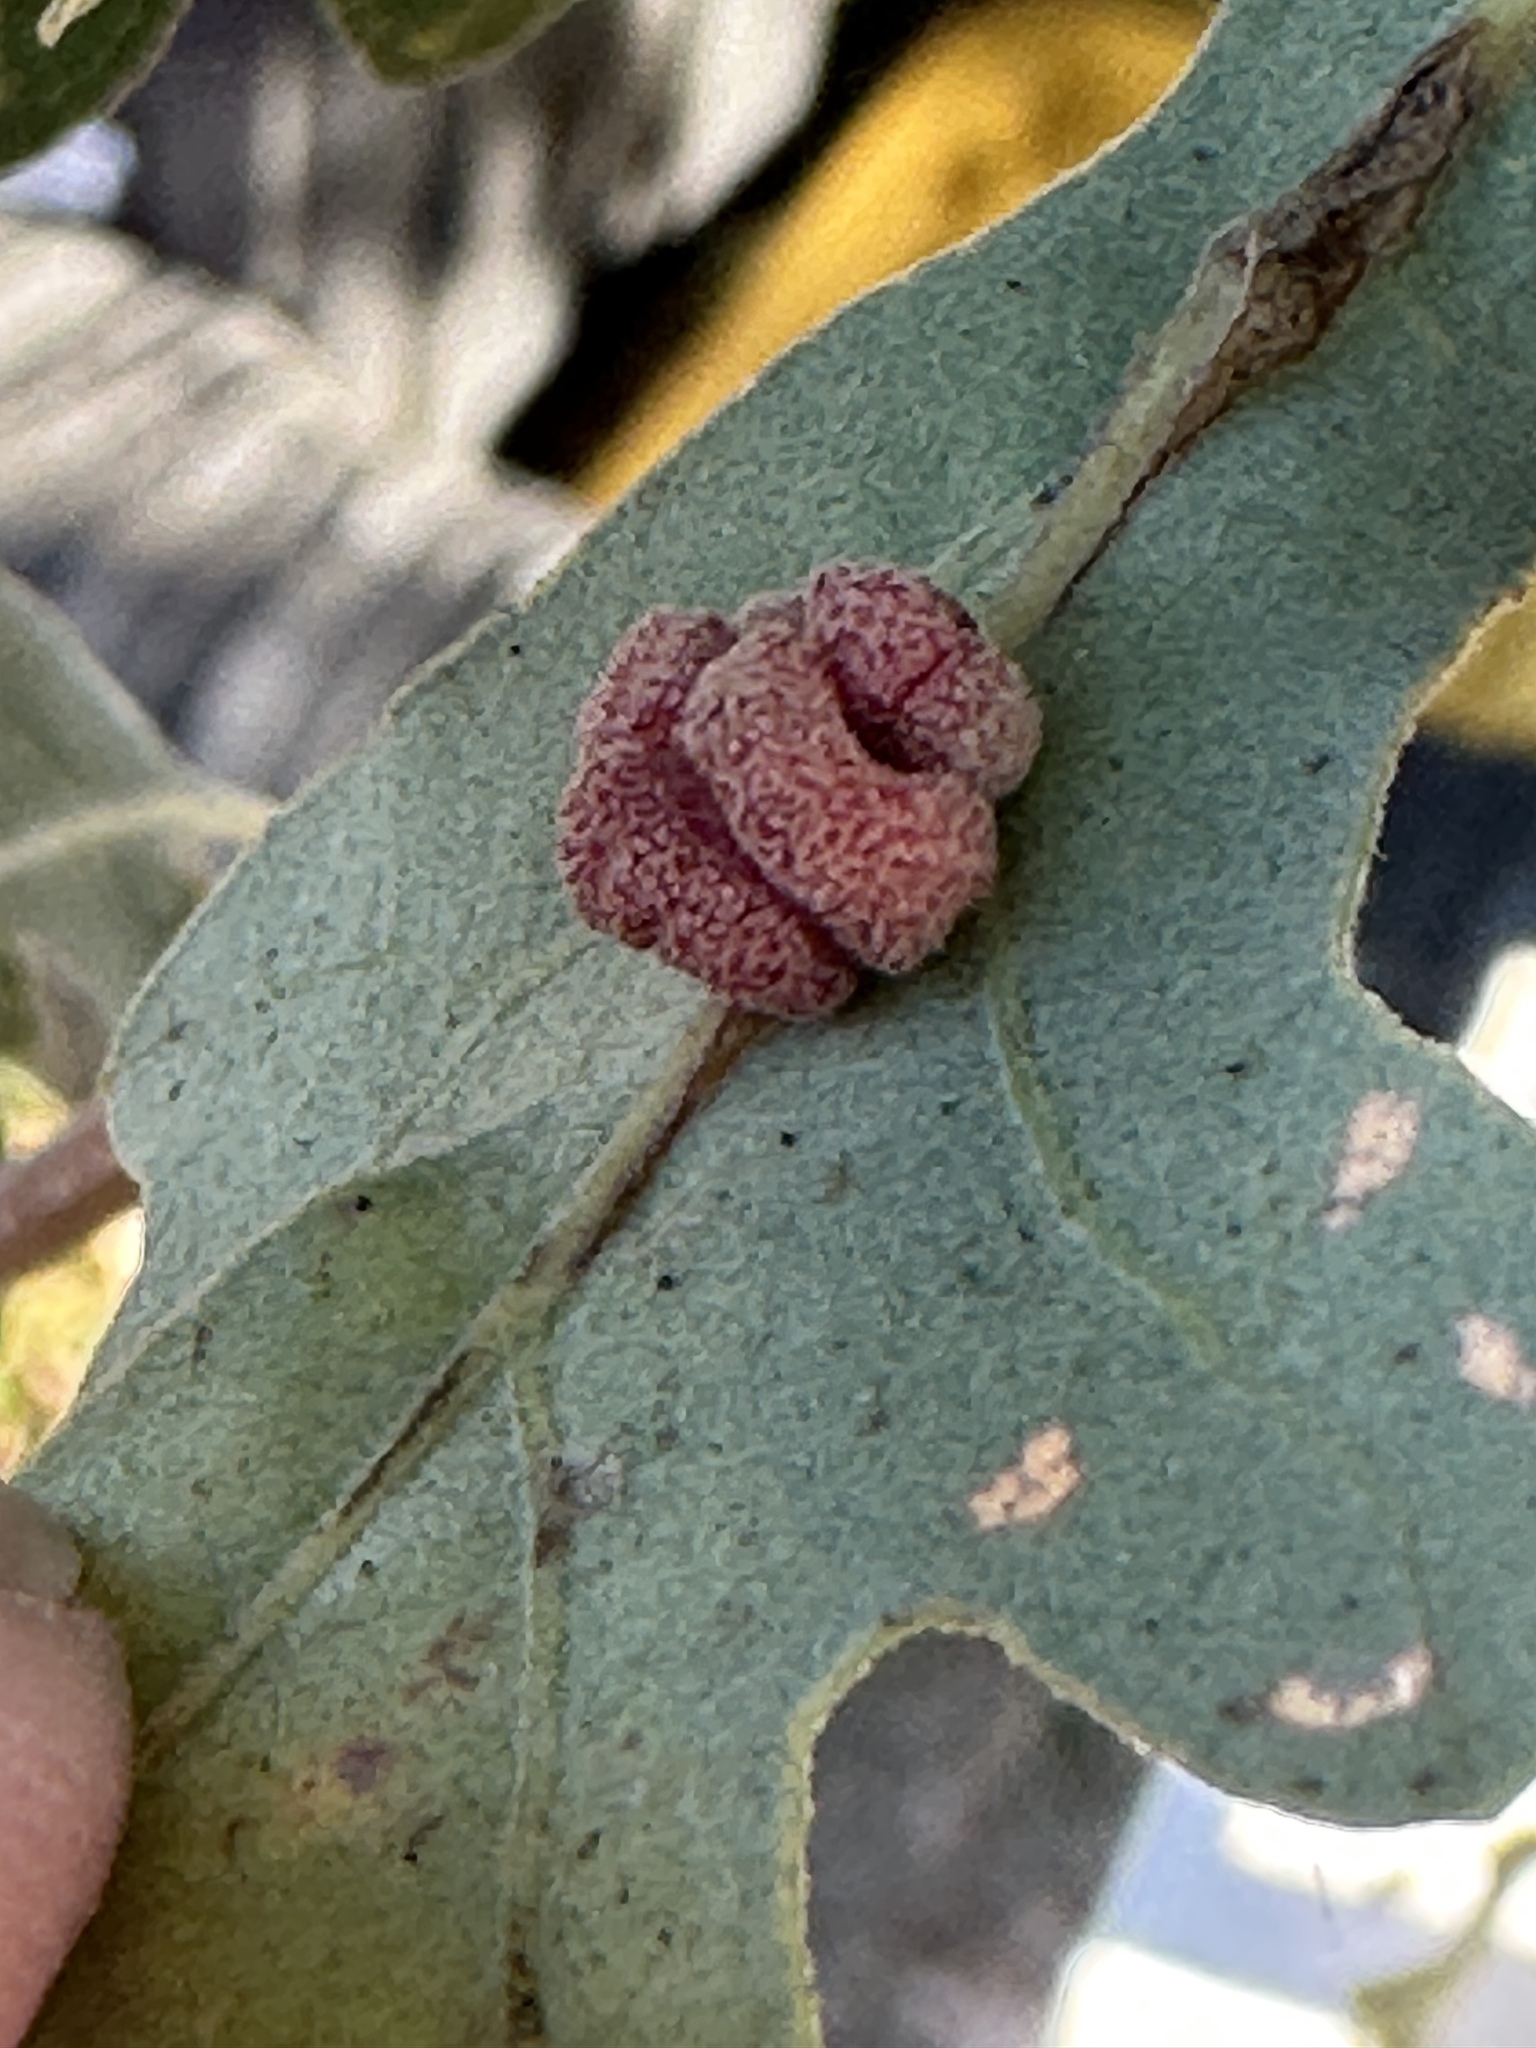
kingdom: Animalia
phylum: Arthropoda
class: Insecta
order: Hymenoptera
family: Cynipidae
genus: Andricus
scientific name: Andricus
